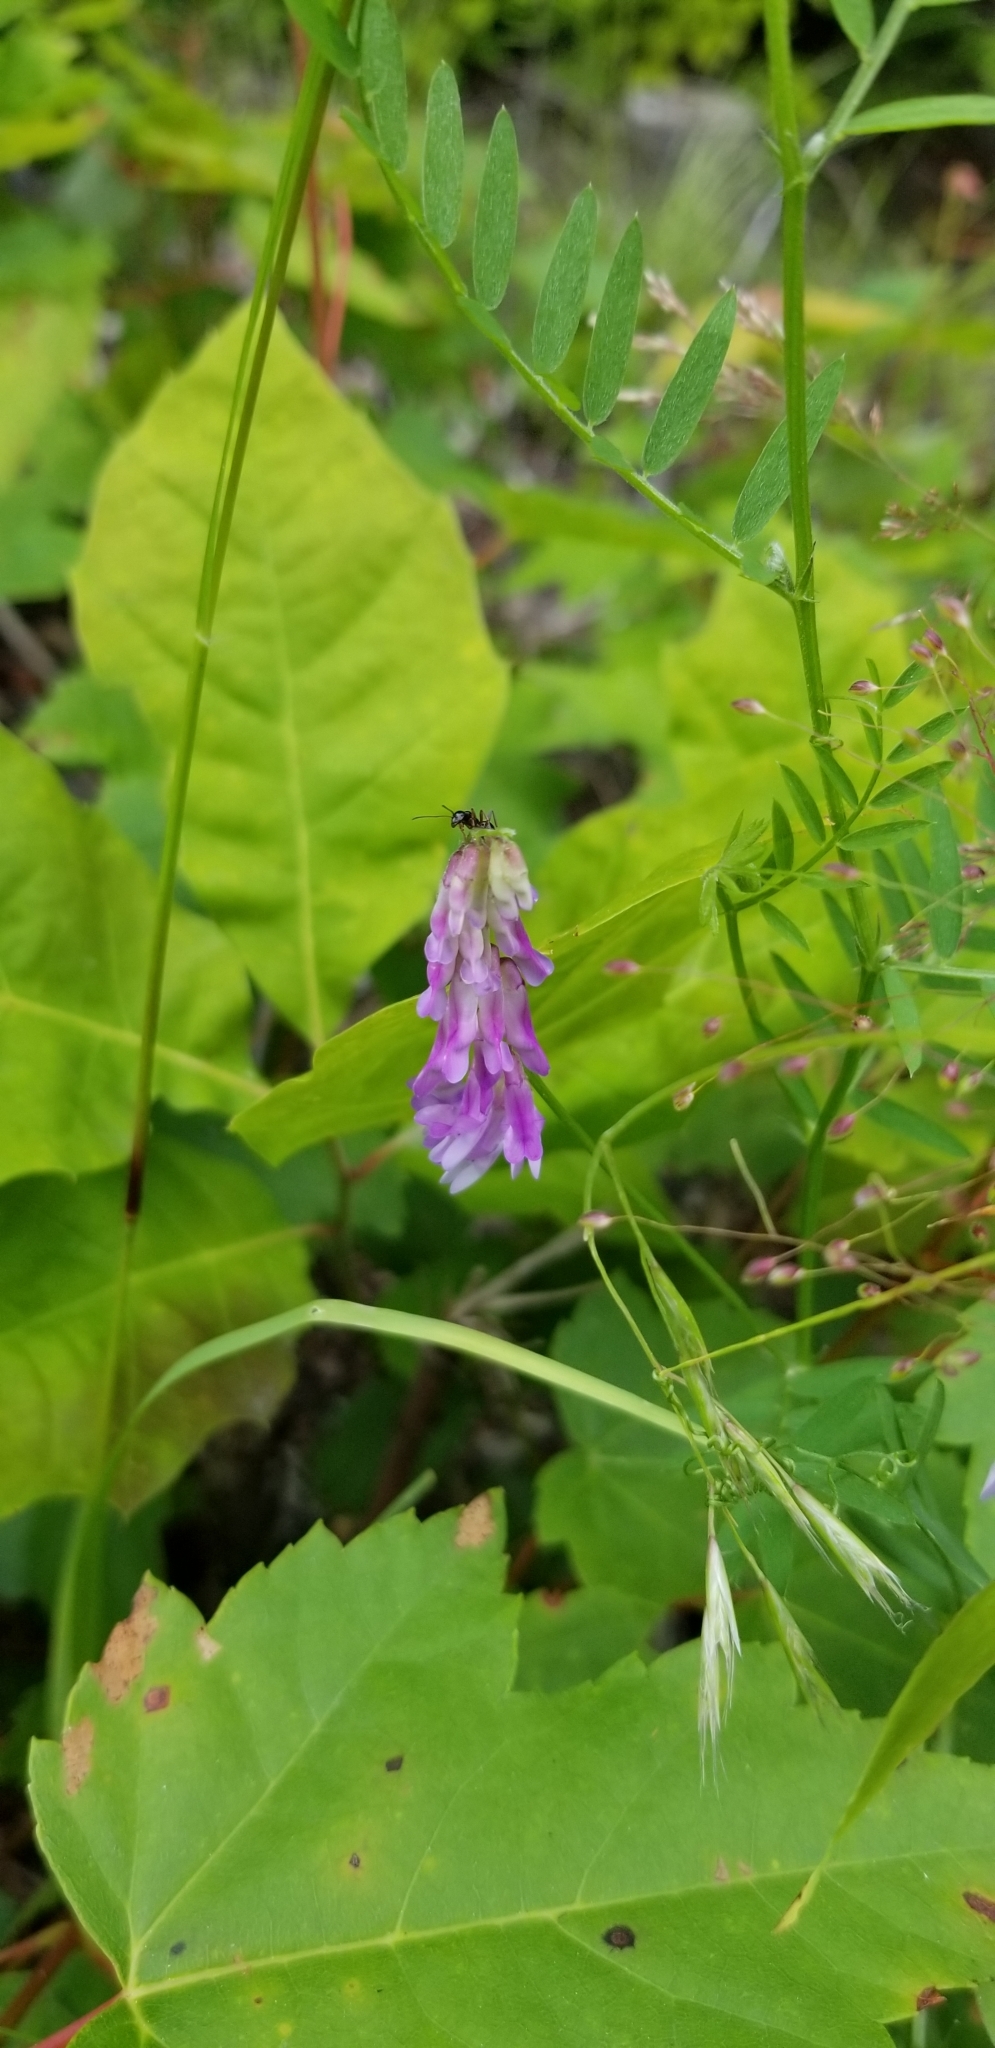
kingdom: Plantae
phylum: Tracheophyta
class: Magnoliopsida
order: Fabales
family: Fabaceae
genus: Vicia
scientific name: Vicia cracca
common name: Bird vetch
